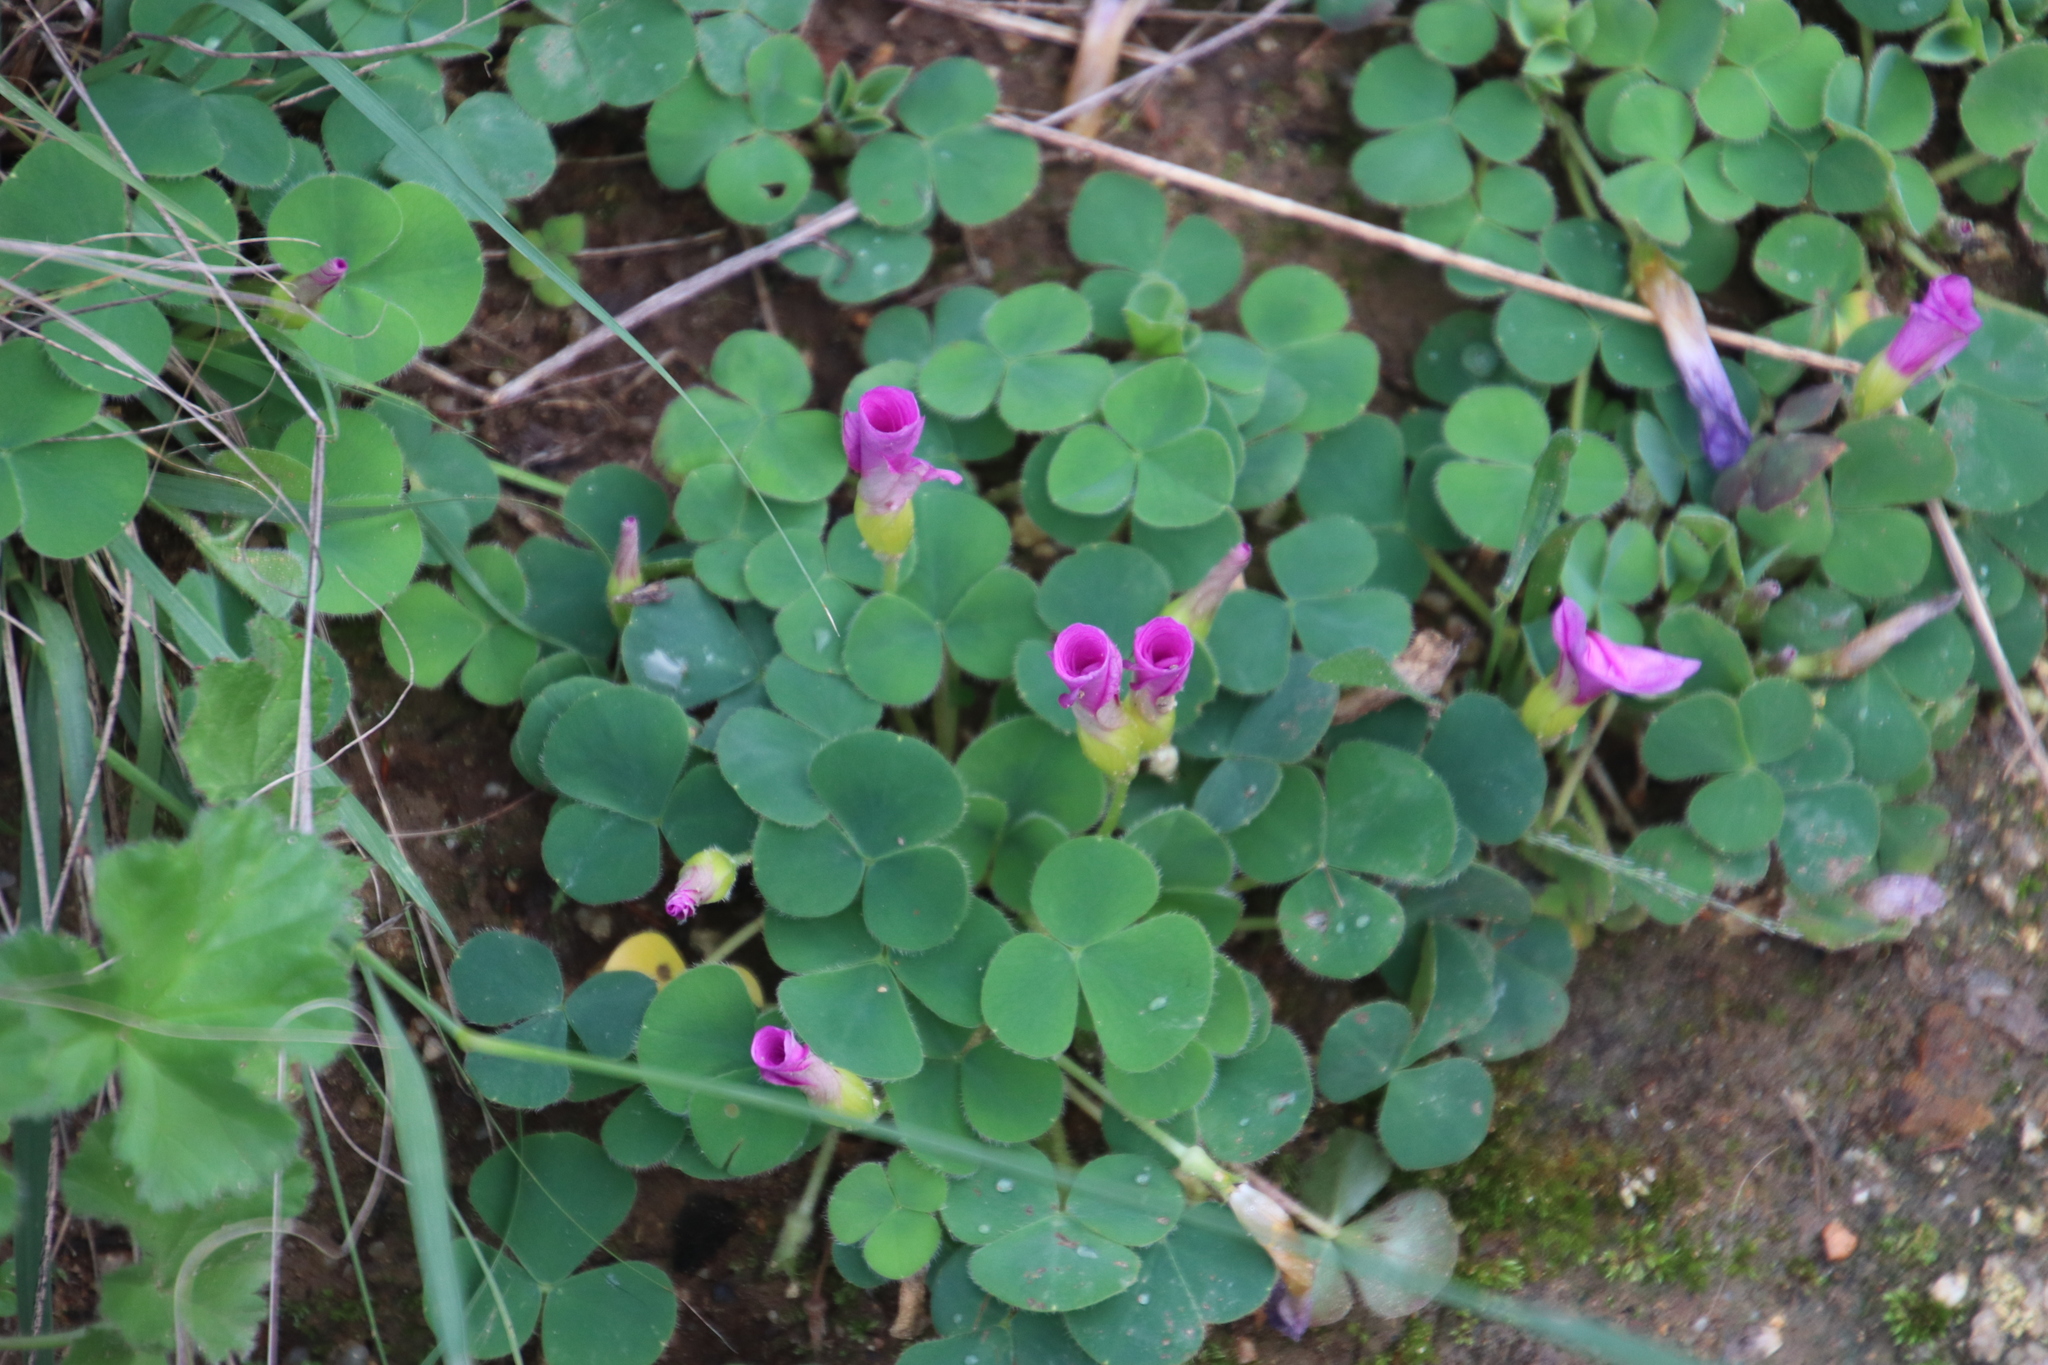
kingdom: Plantae
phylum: Tracheophyta
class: Magnoliopsida
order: Oxalidales
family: Oxalidaceae
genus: Oxalis
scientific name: Oxalis purpurea
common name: Purple woodsorrel
